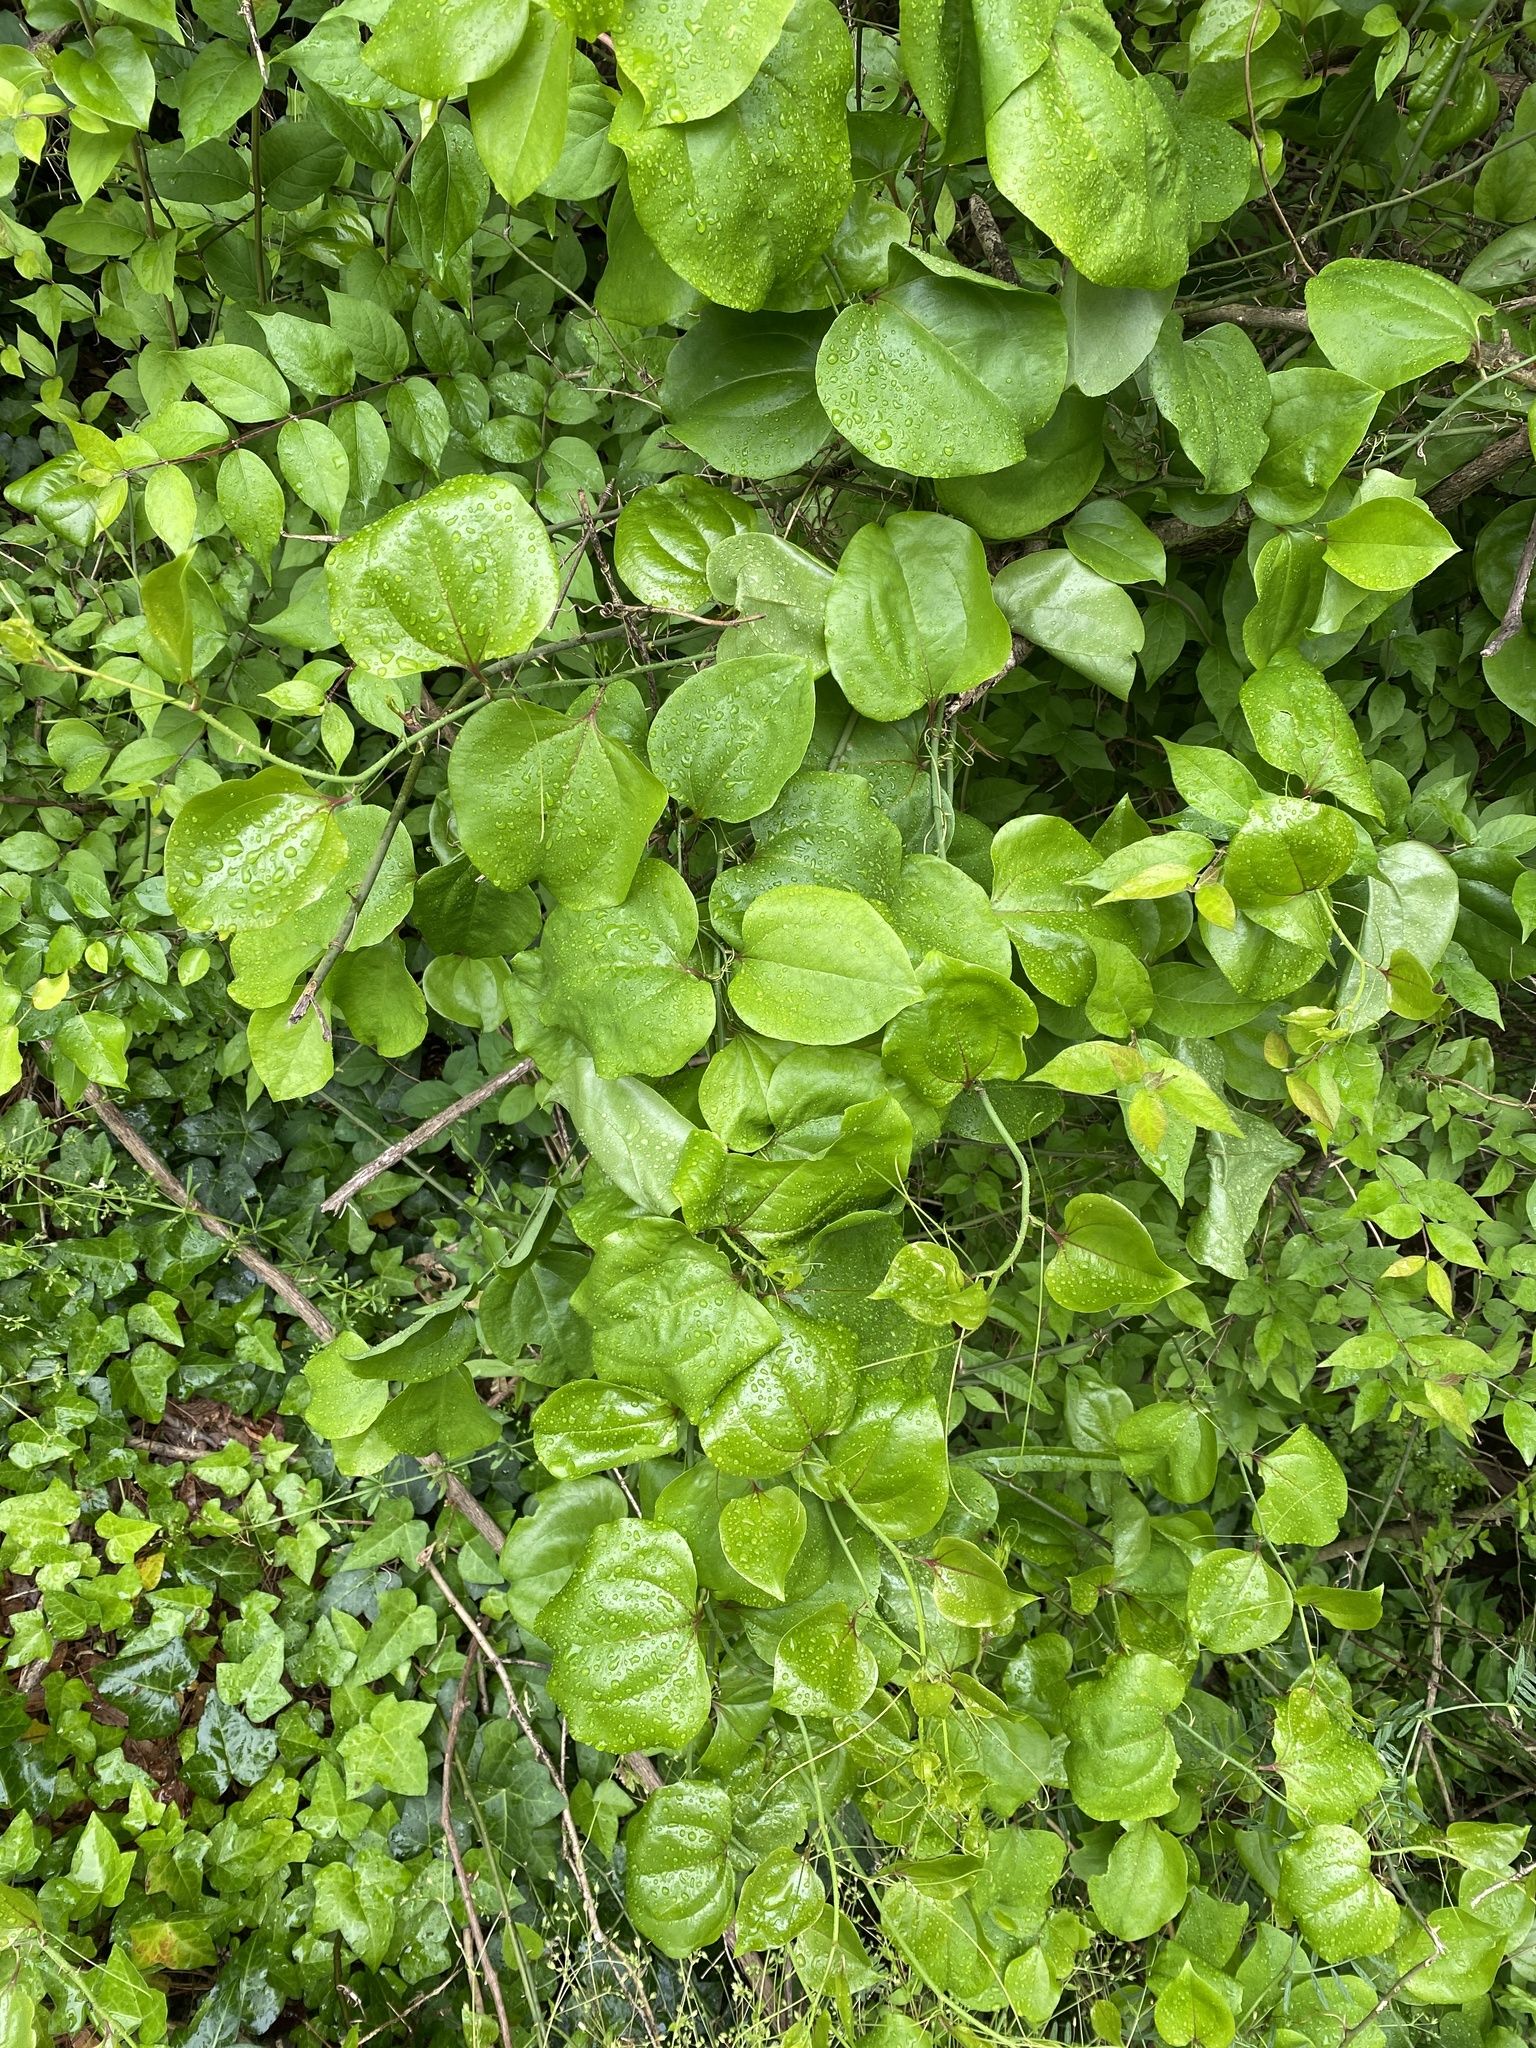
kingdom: Plantae
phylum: Tracheophyta
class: Liliopsida
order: Liliales
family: Smilacaceae
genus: Smilax
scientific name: Smilax rotundifolia
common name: Bullbriar
